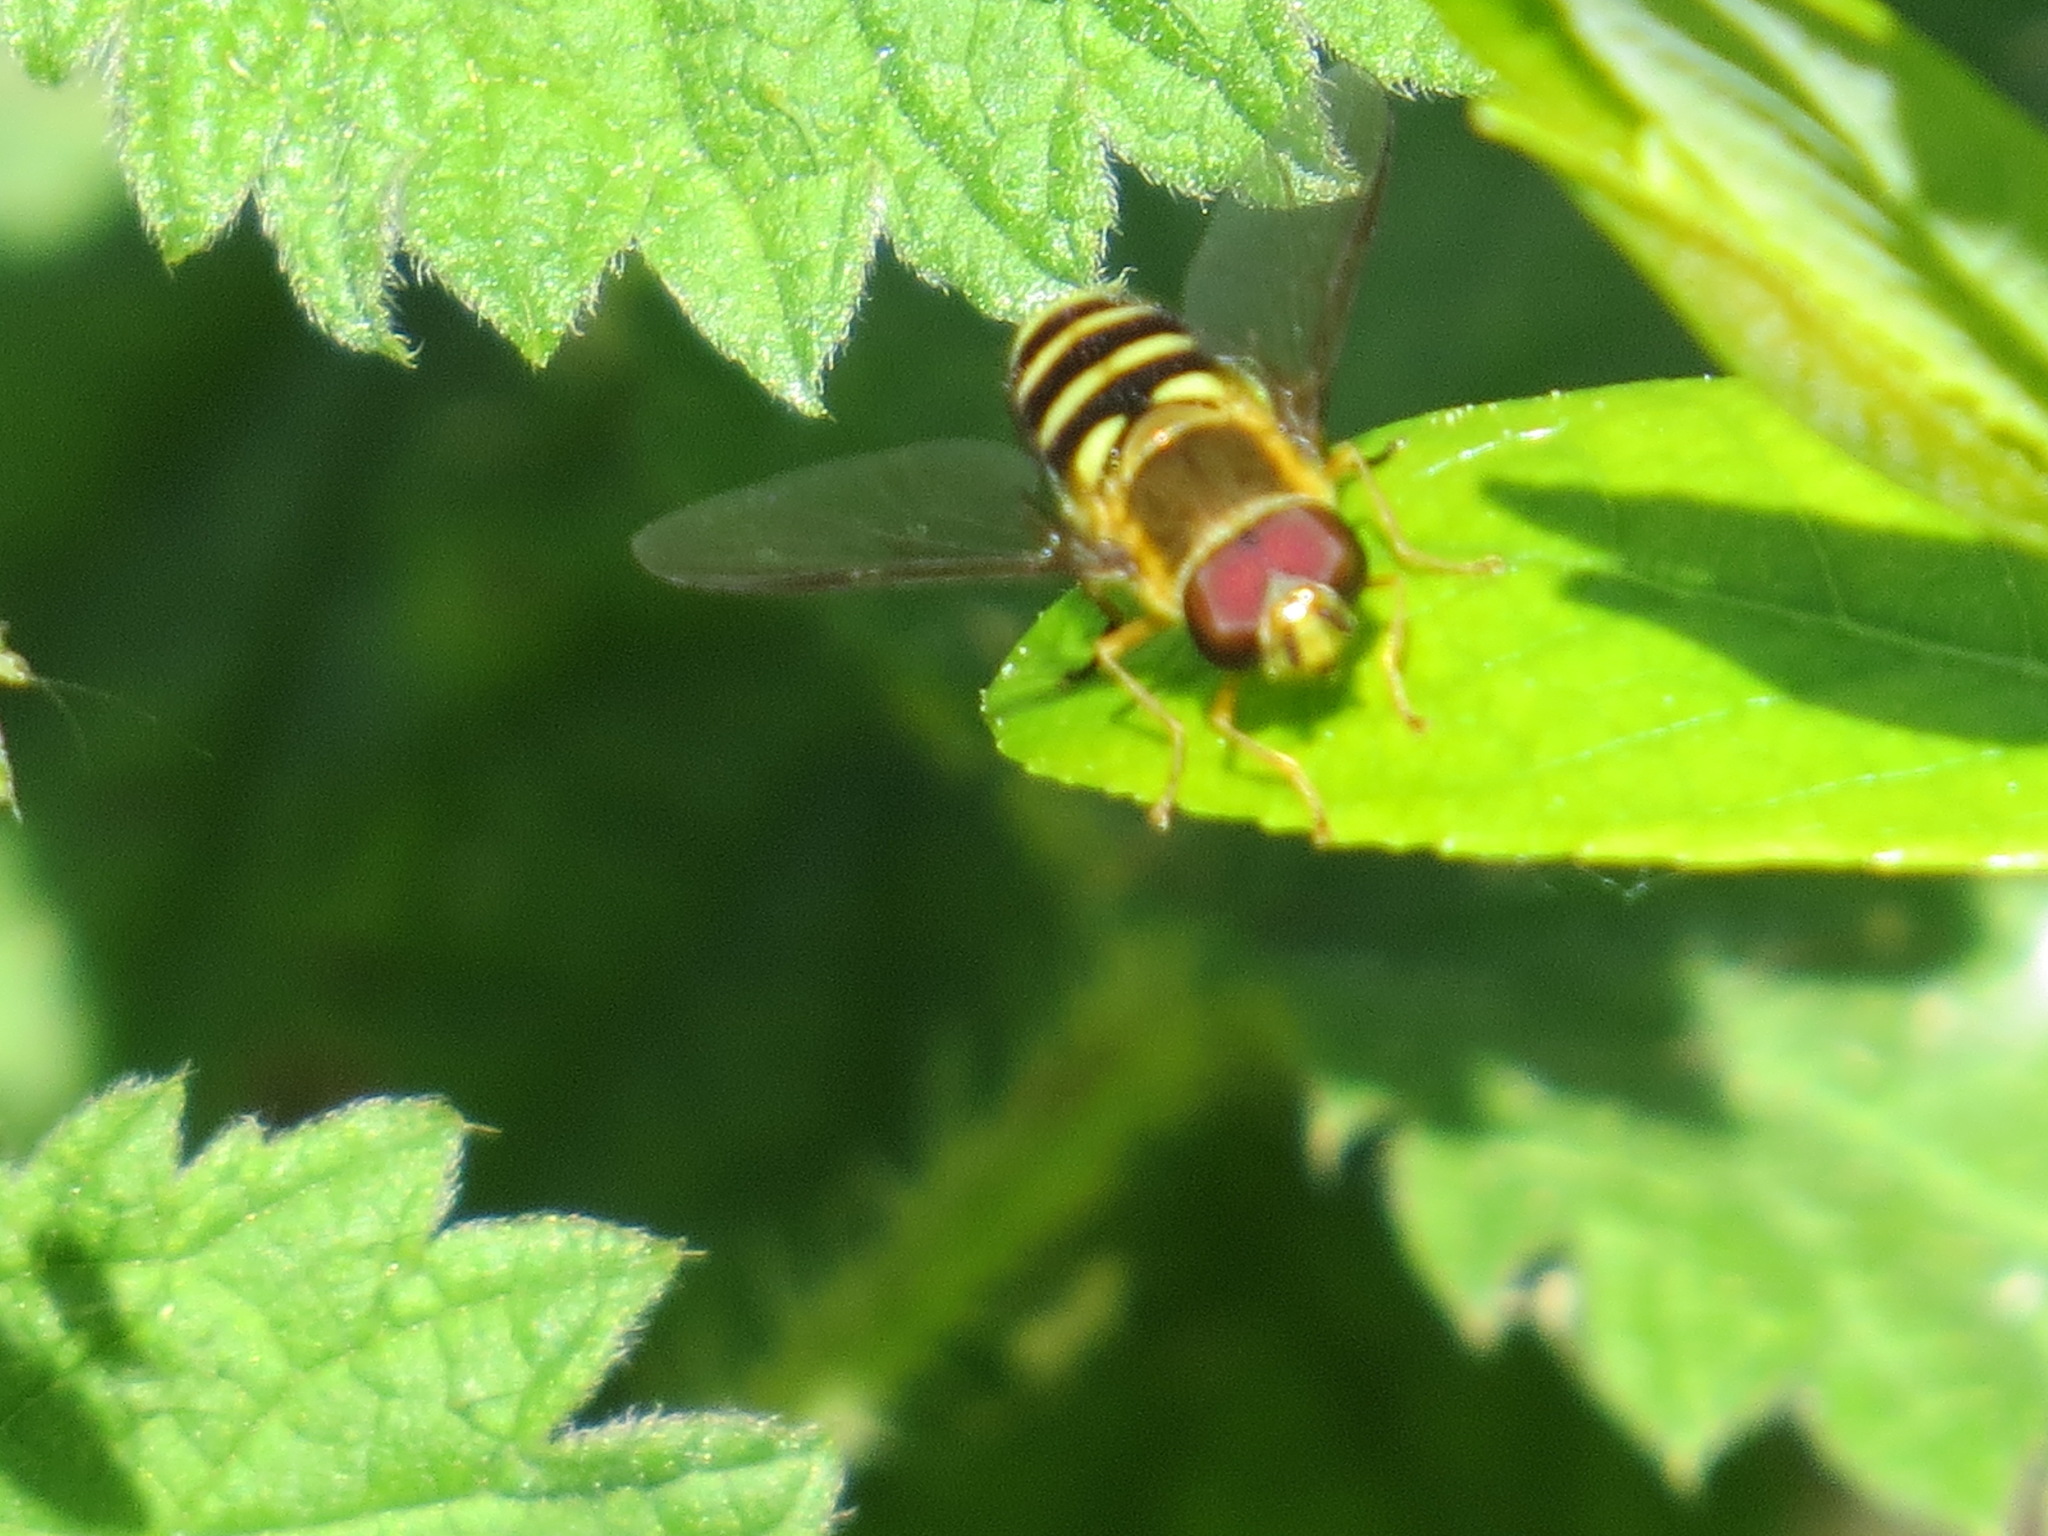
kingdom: Animalia
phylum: Arthropoda
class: Insecta
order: Diptera
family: Syrphidae
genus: Syrphus
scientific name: Syrphus opinator
